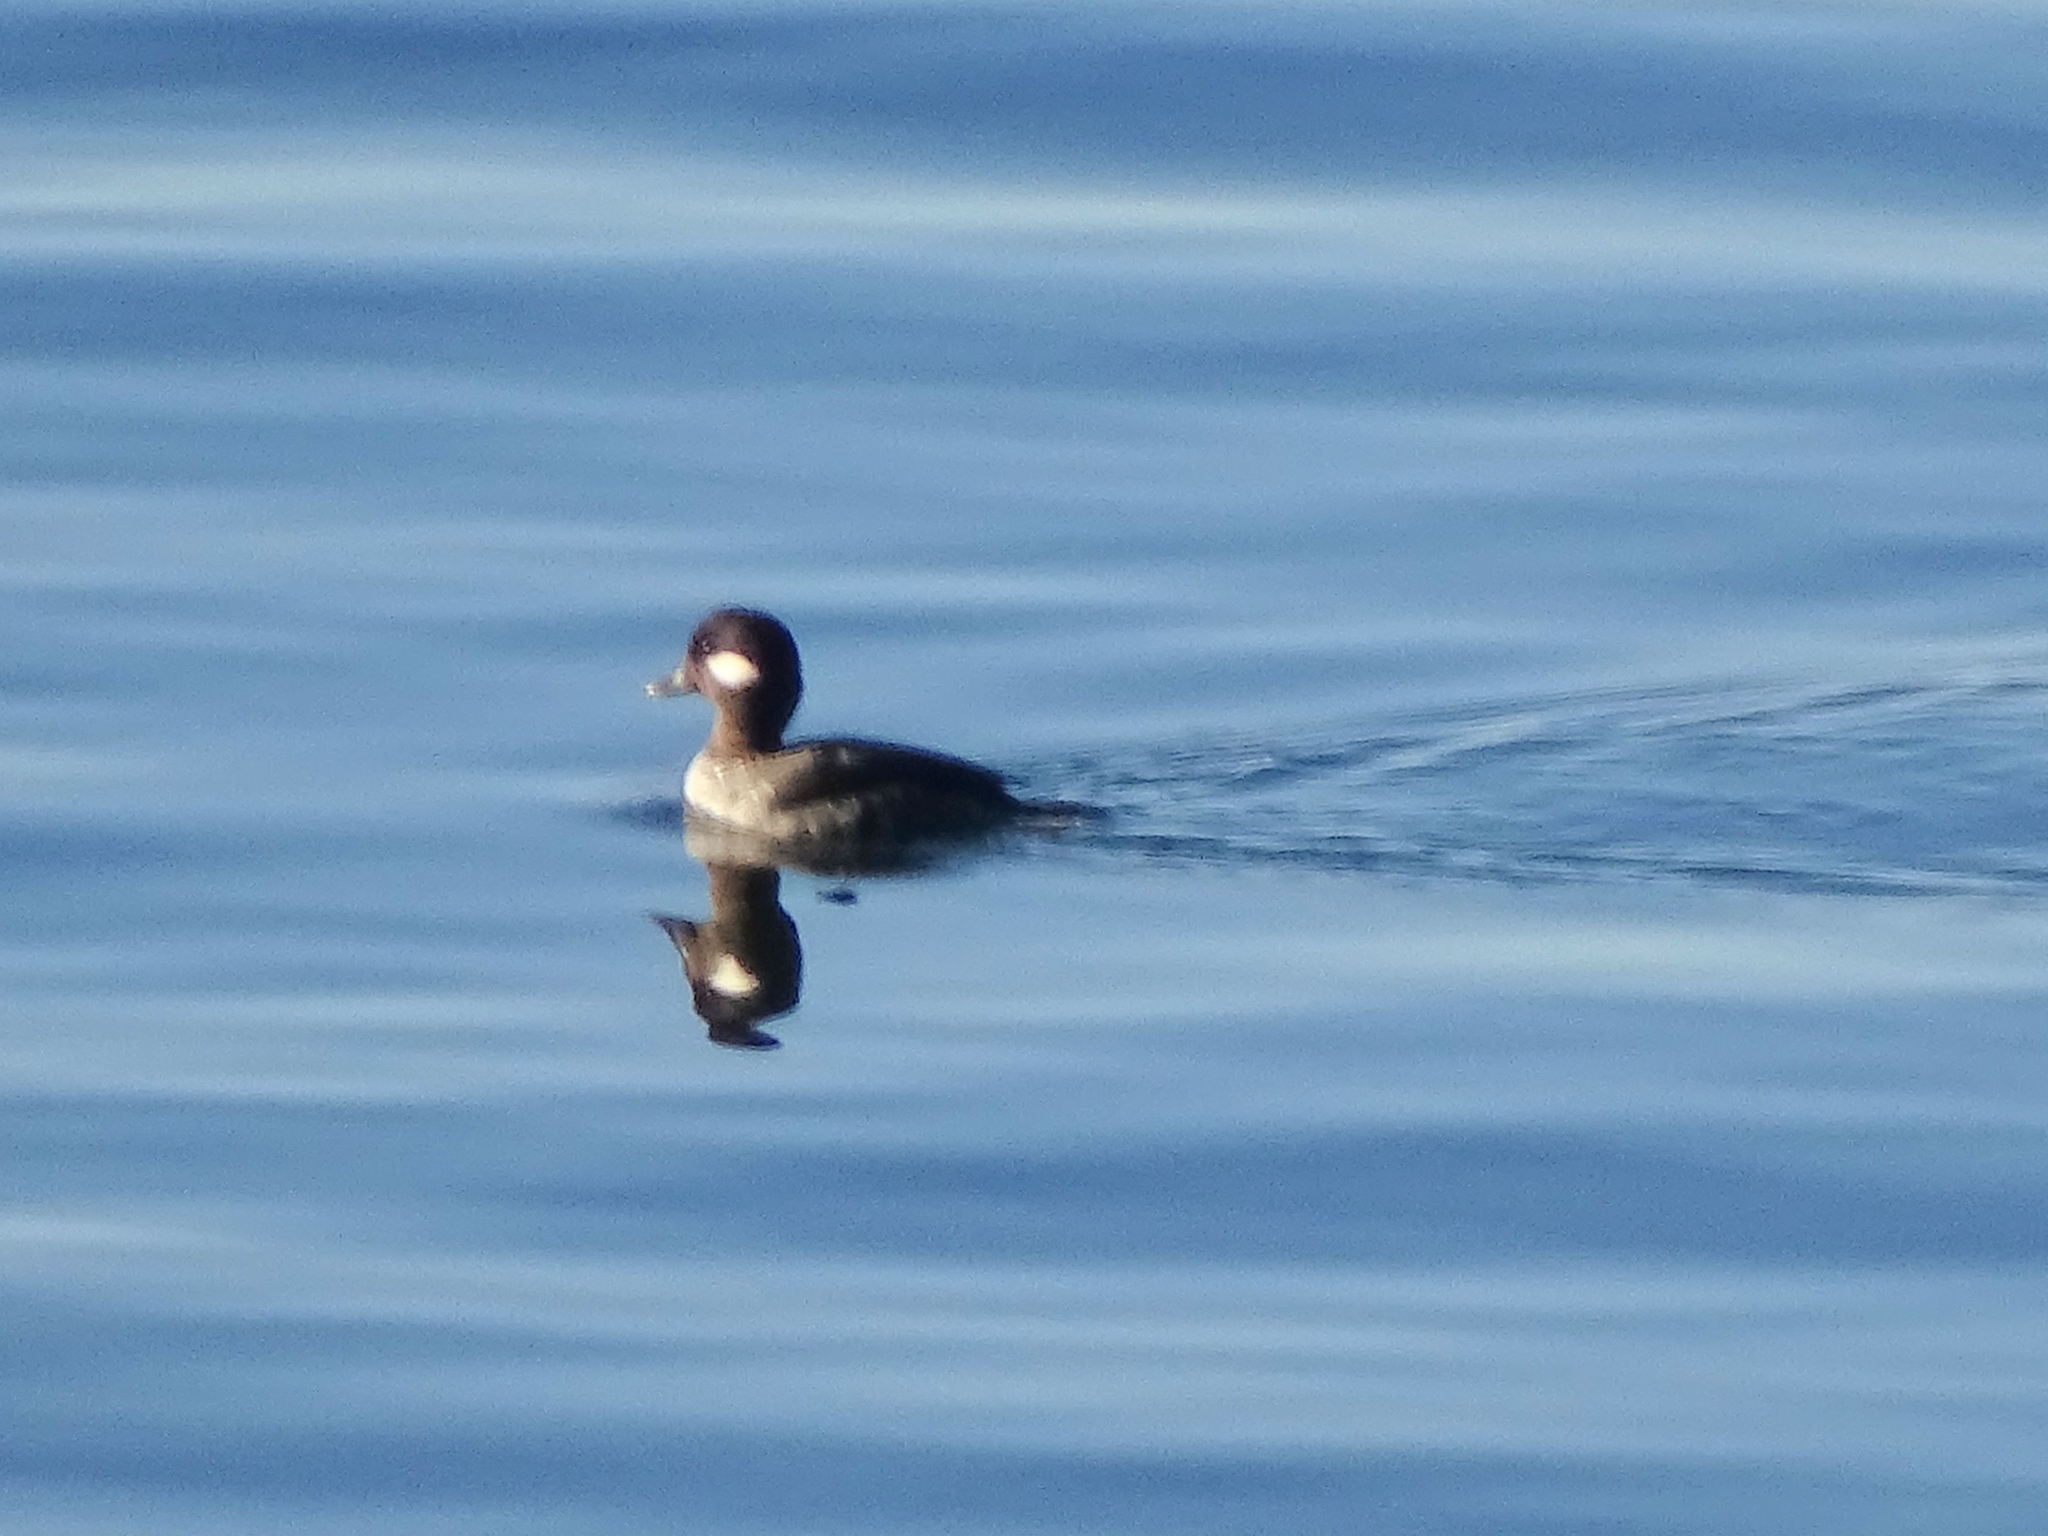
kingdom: Animalia
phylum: Chordata
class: Aves
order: Anseriformes
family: Anatidae
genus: Bucephala
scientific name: Bucephala albeola
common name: Bufflehead
